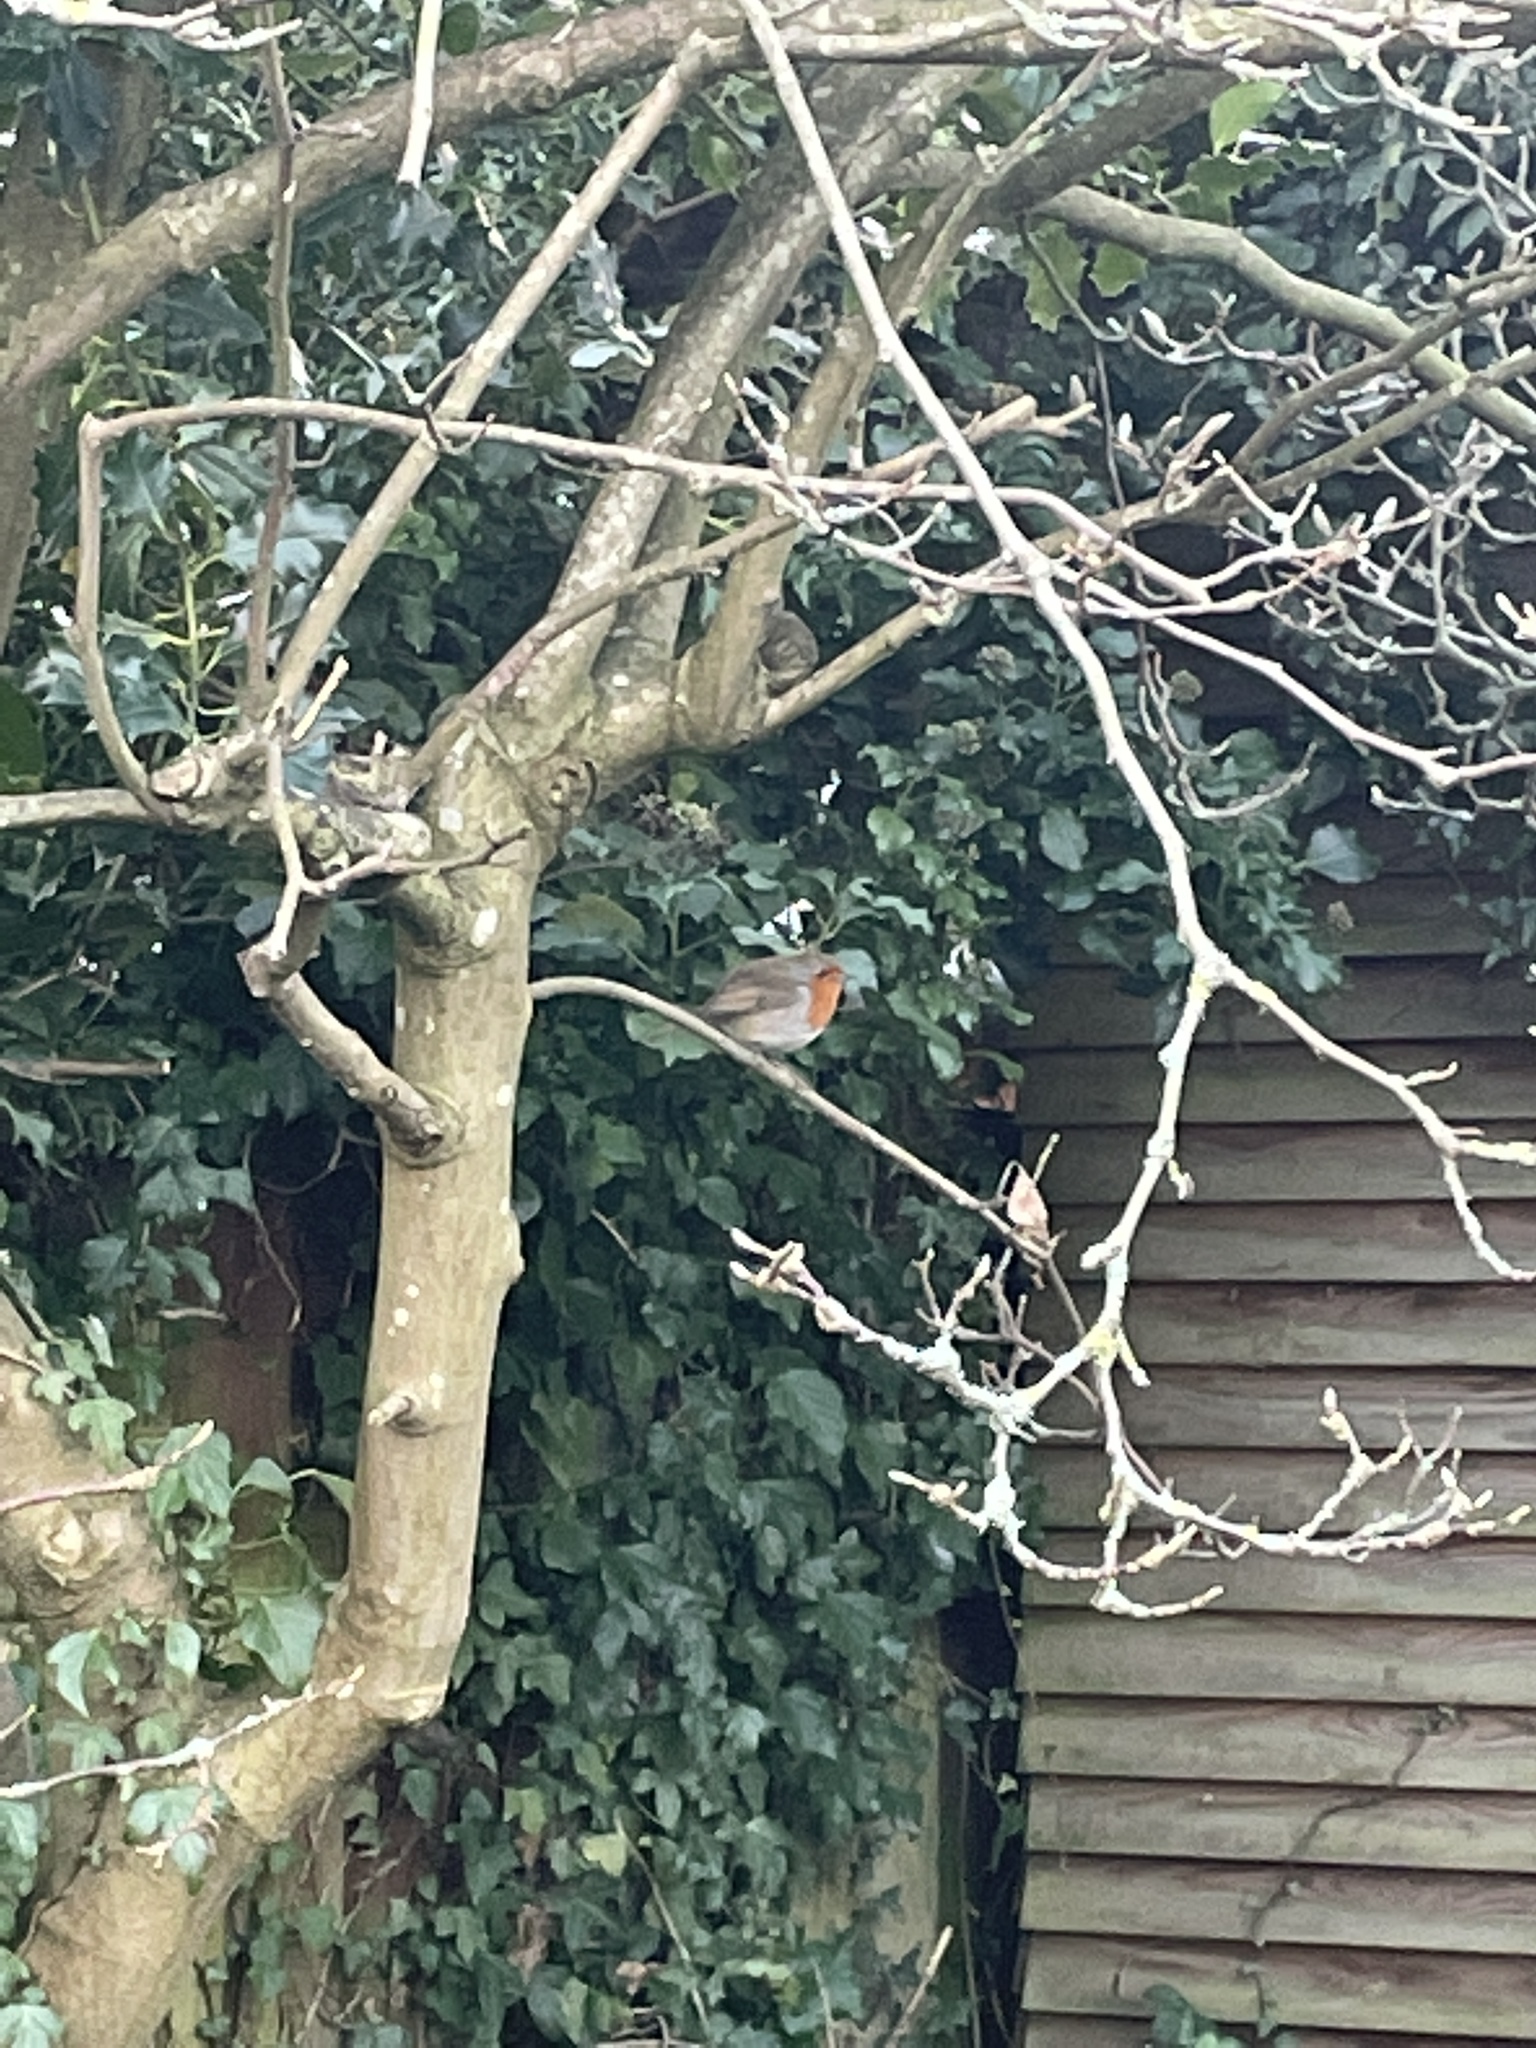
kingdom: Animalia
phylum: Chordata
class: Aves
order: Passeriformes
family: Muscicapidae
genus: Erithacus
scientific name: Erithacus rubecula
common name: European robin
